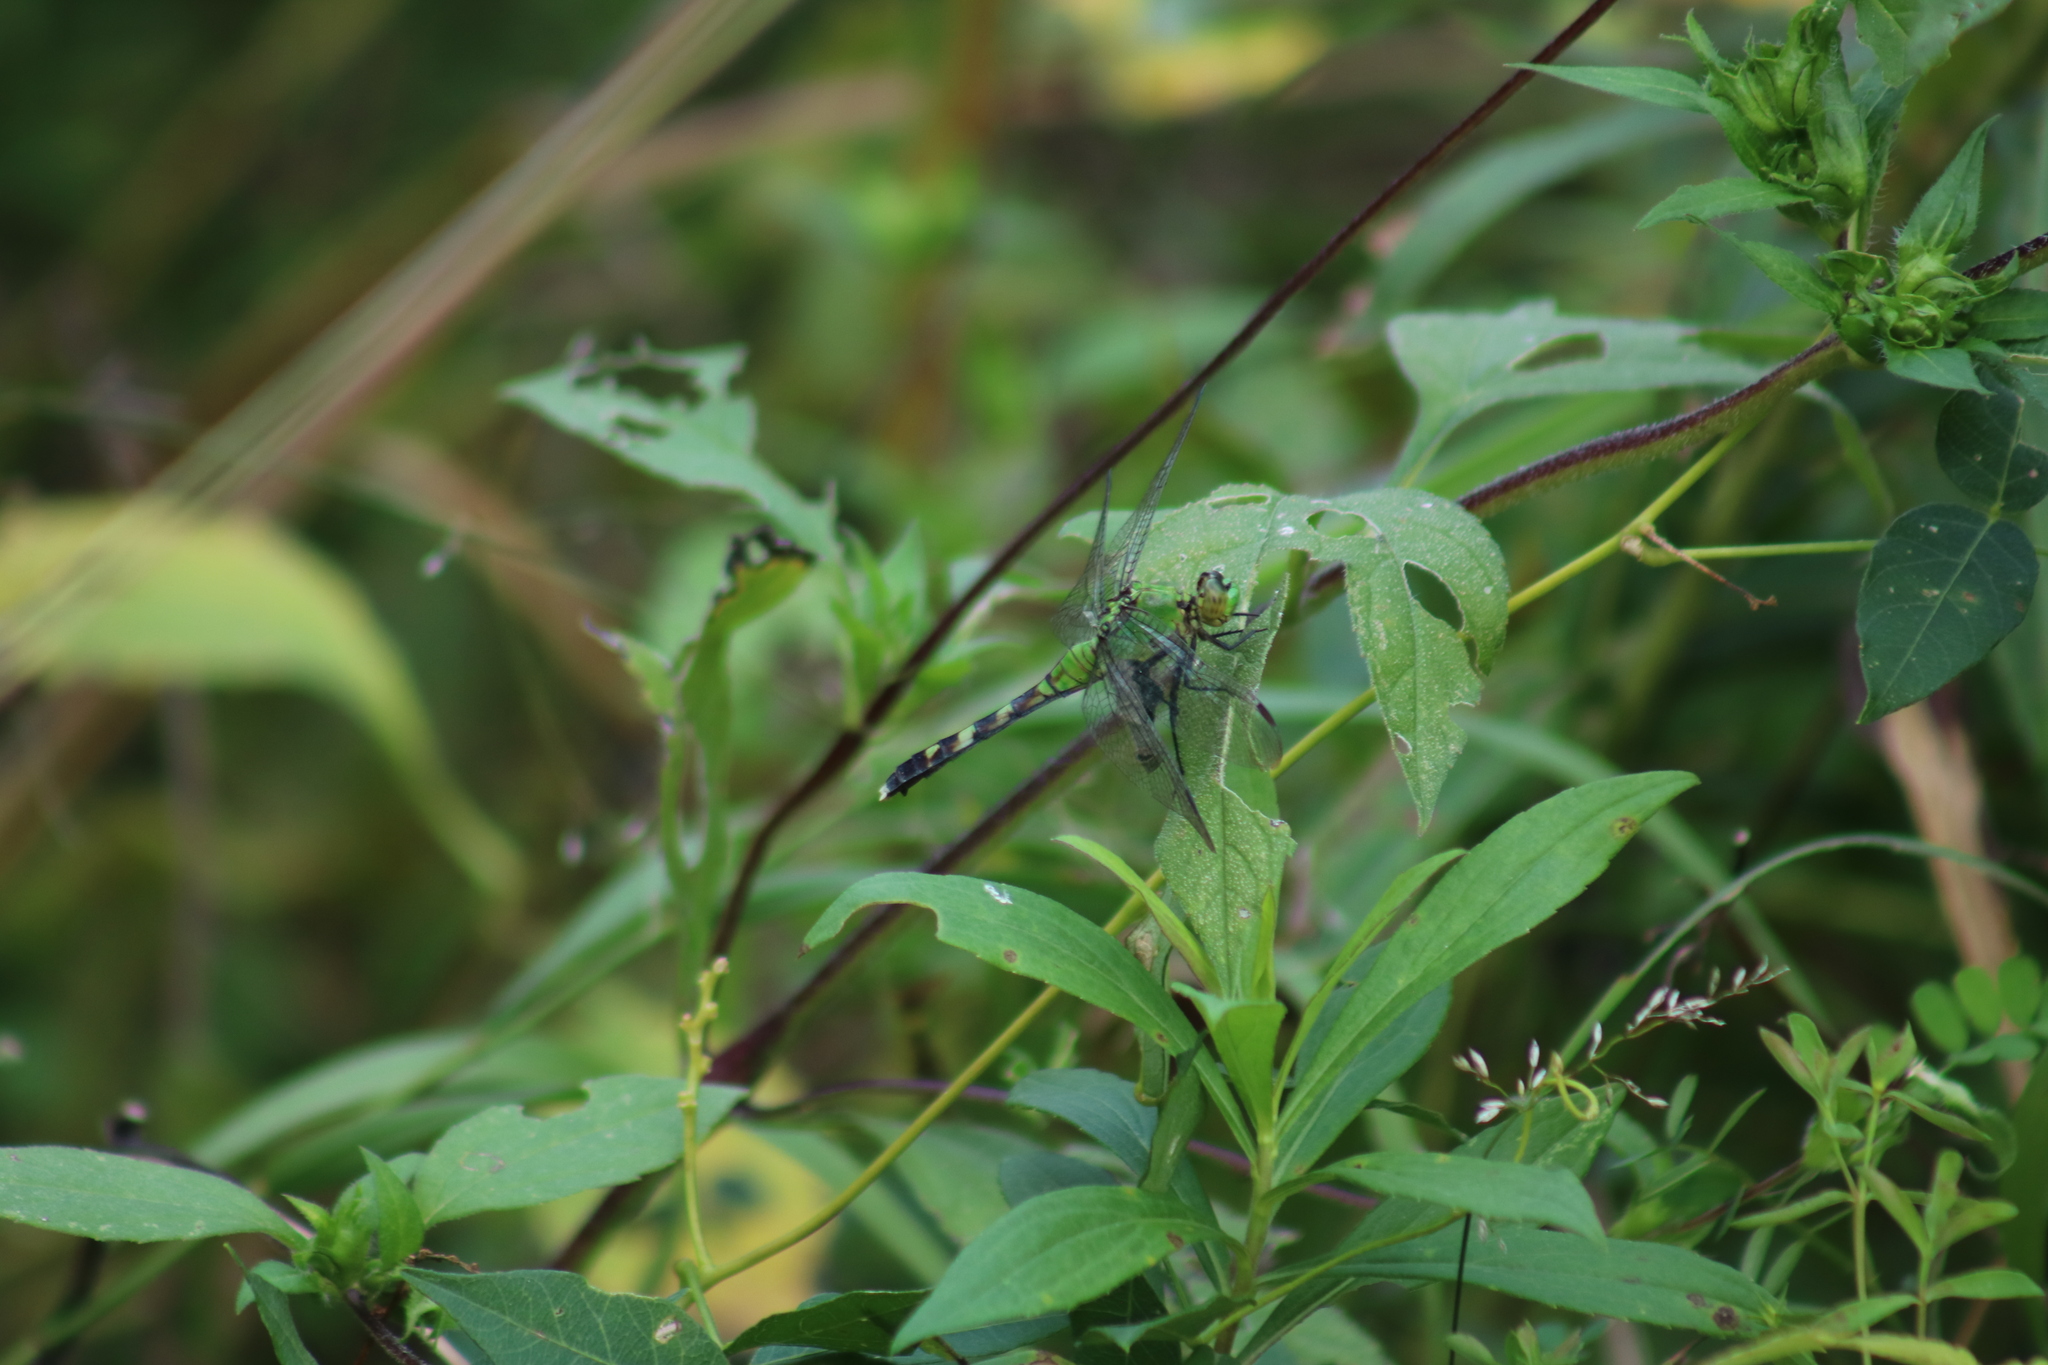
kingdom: Animalia
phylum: Arthropoda
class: Insecta
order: Odonata
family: Libellulidae
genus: Erythemis
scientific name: Erythemis simplicicollis
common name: Eastern pondhawk
